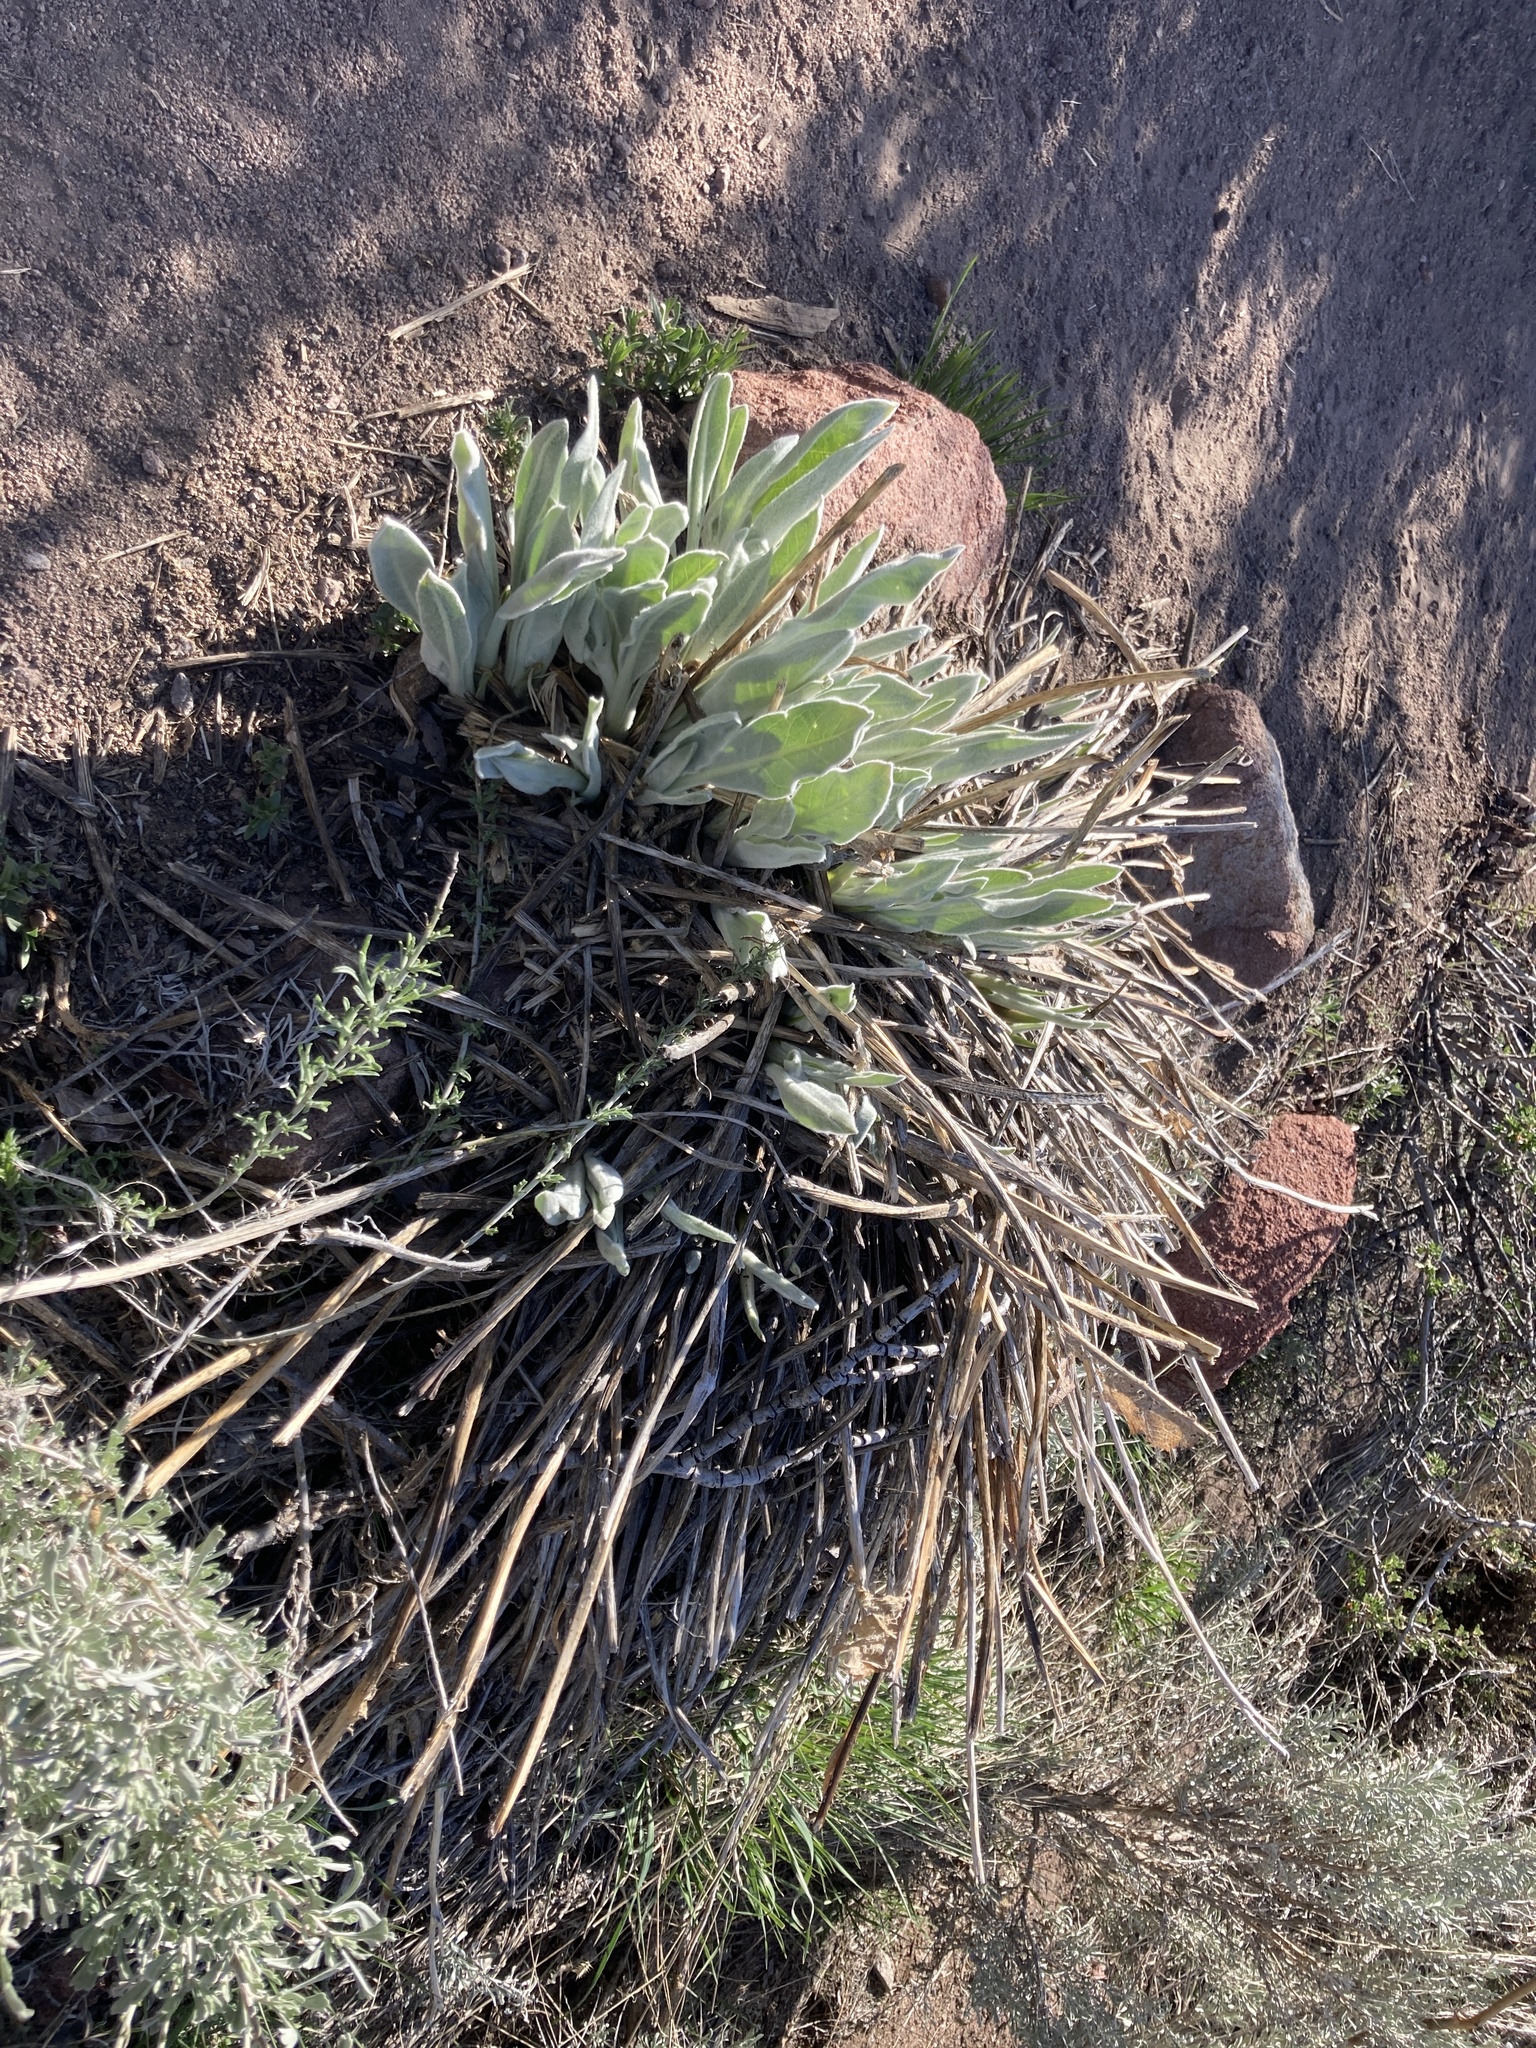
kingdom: Plantae
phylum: Tracheophyta
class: Magnoliopsida
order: Asterales
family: Asteraceae
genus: Wyethia
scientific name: Wyethia mollis
